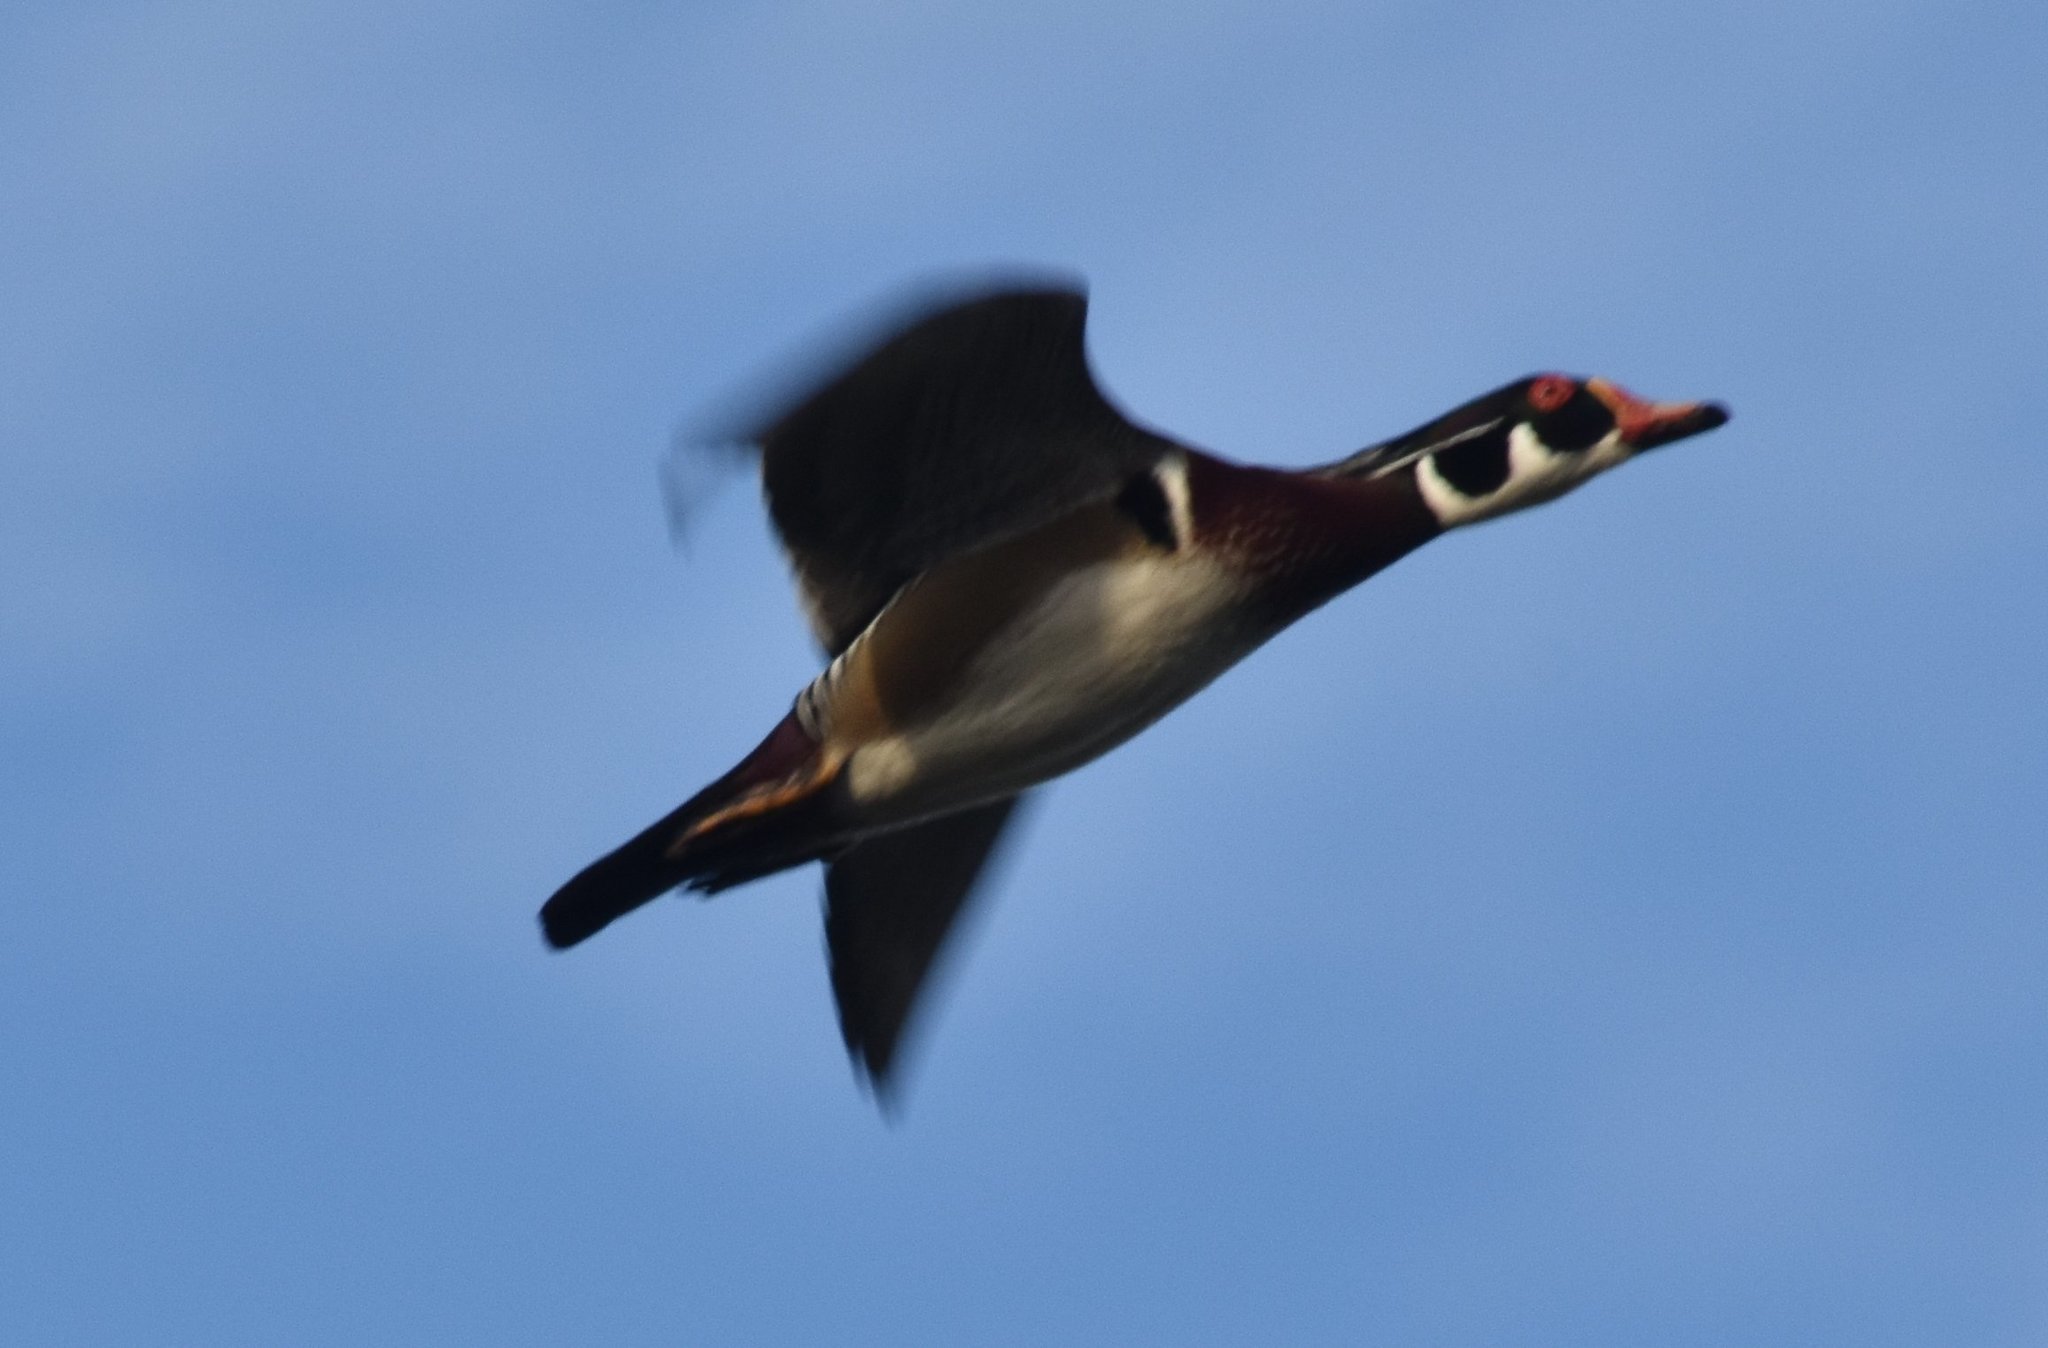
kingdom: Animalia
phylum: Chordata
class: Aves
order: Anseriformes
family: Anatidae
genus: Aix
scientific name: Aix sponsa
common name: Wood duck
